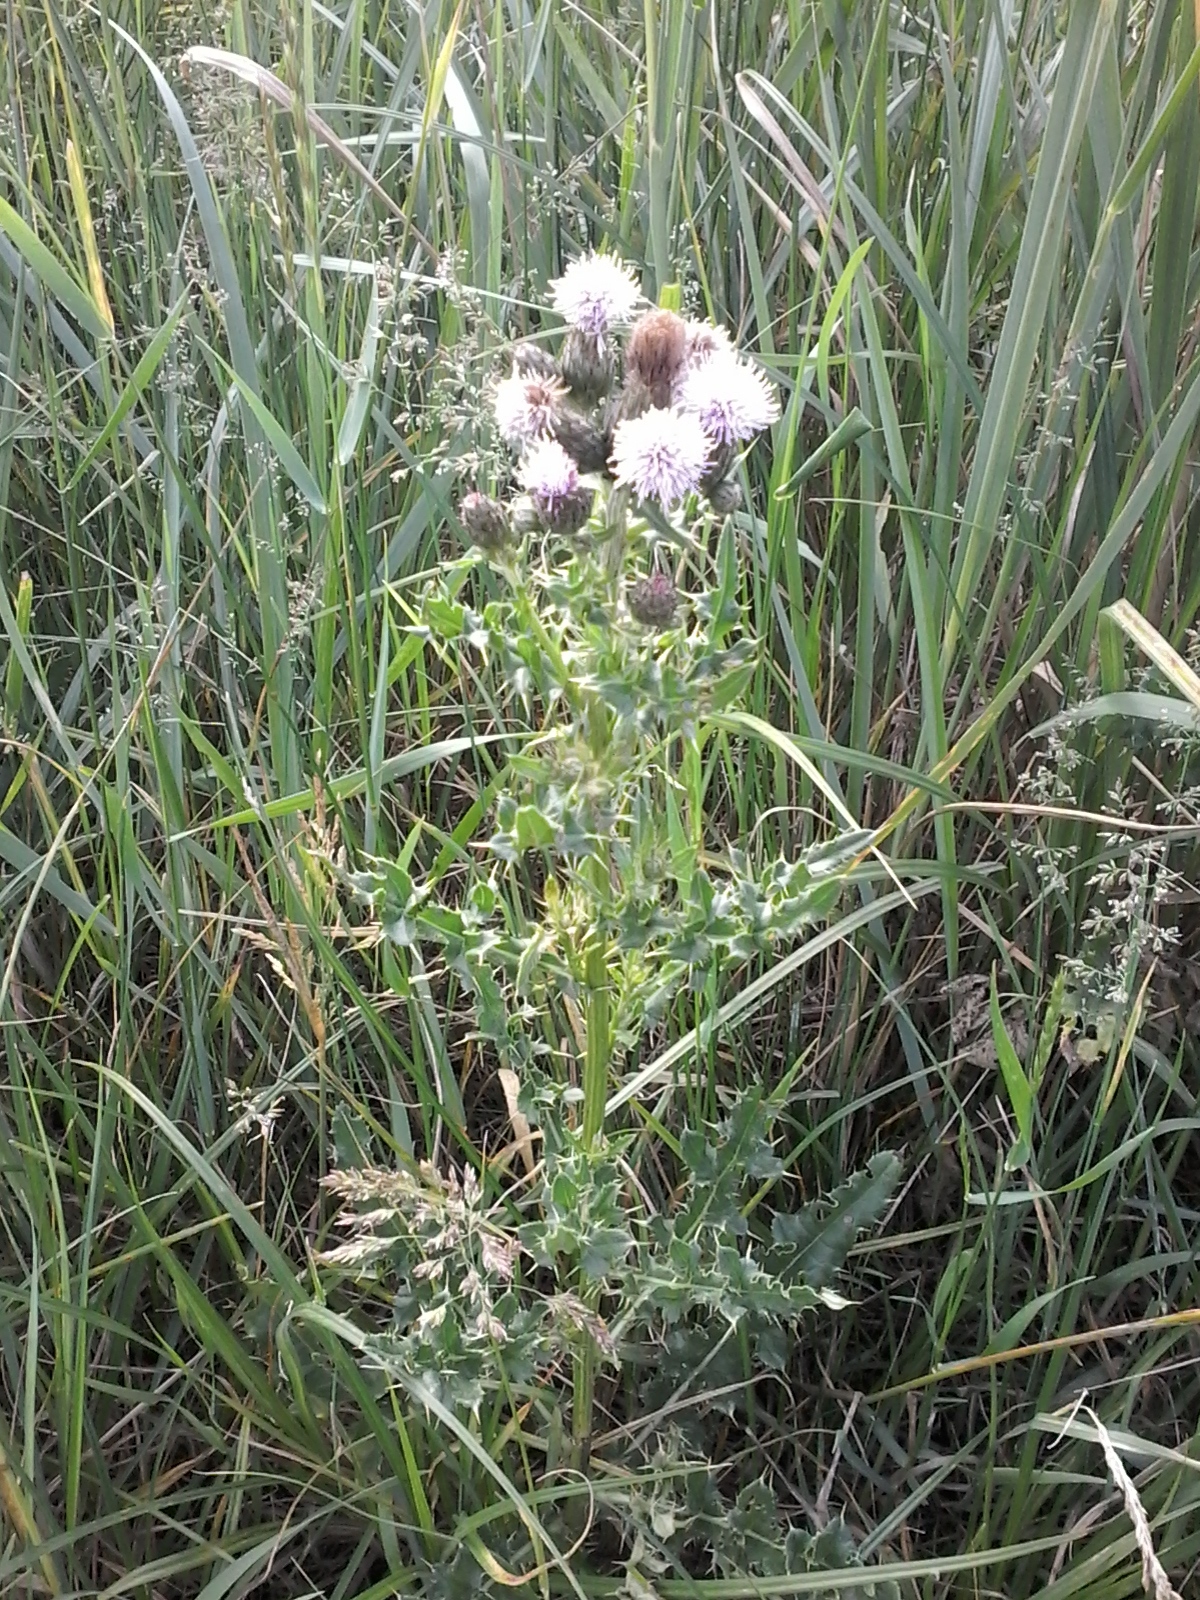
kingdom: Plantae
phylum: Tracheophyta
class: Magnoliopsida
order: Asterales
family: Asteraceae
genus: Cirsium
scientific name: Cirsium arvense
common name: Creeping thistle
